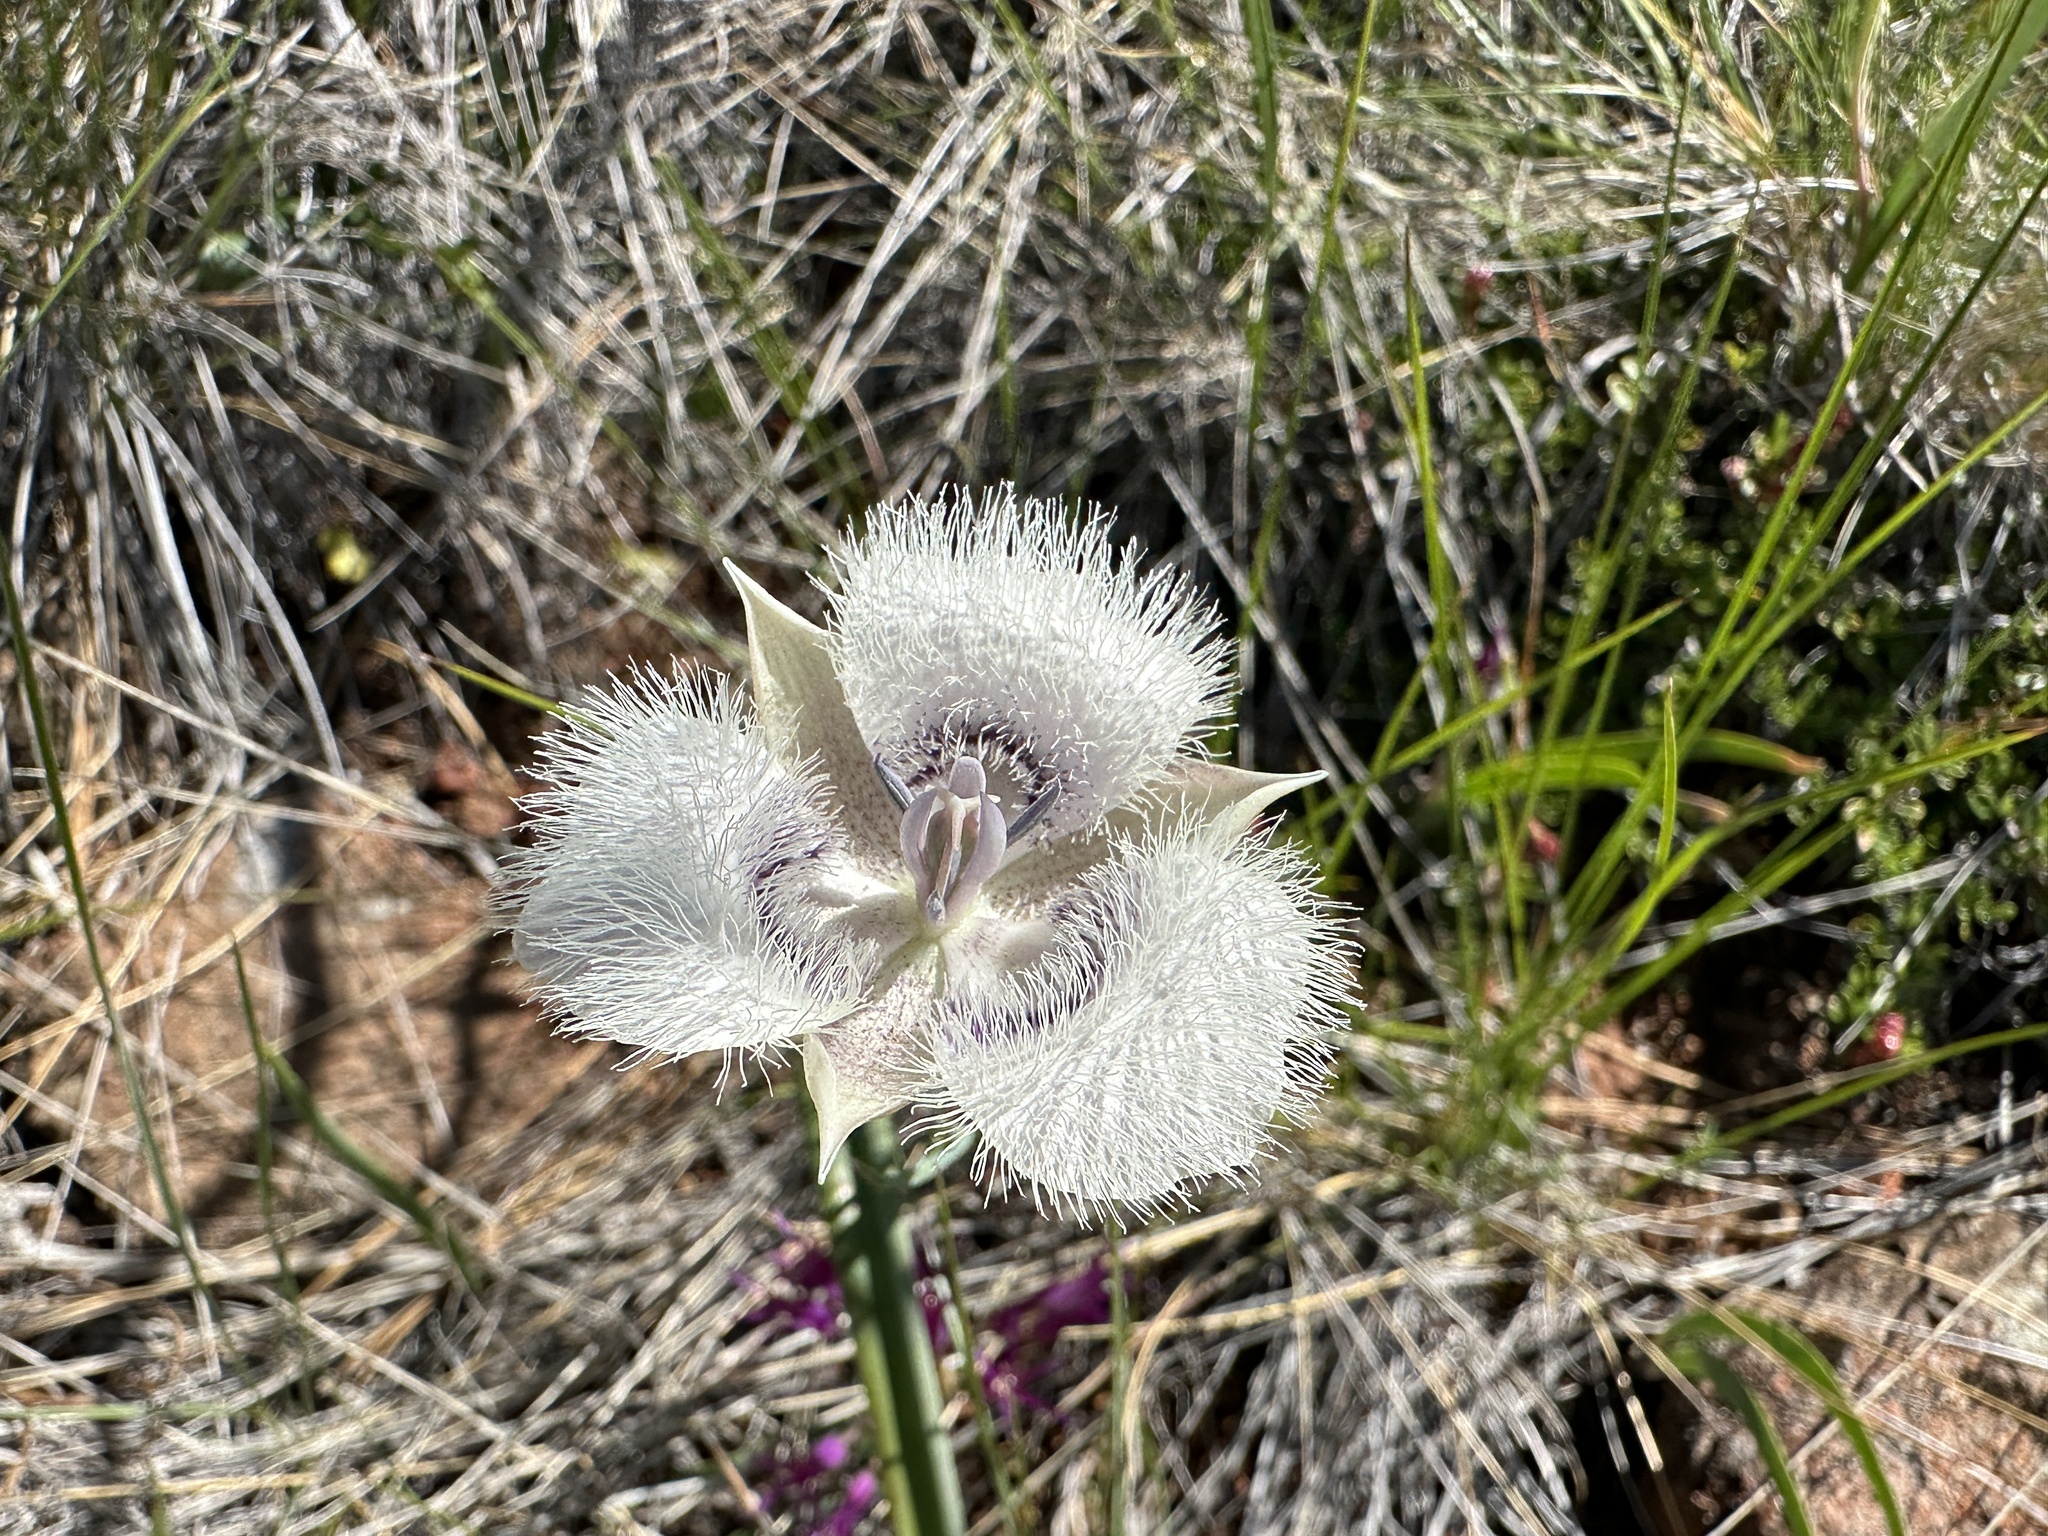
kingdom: Plantae
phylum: Tracheophyta
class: Liliopsida
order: Liliales
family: Liliaceae
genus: Calochortus
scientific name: Calochortus tolmiei
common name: Pussy-ears
